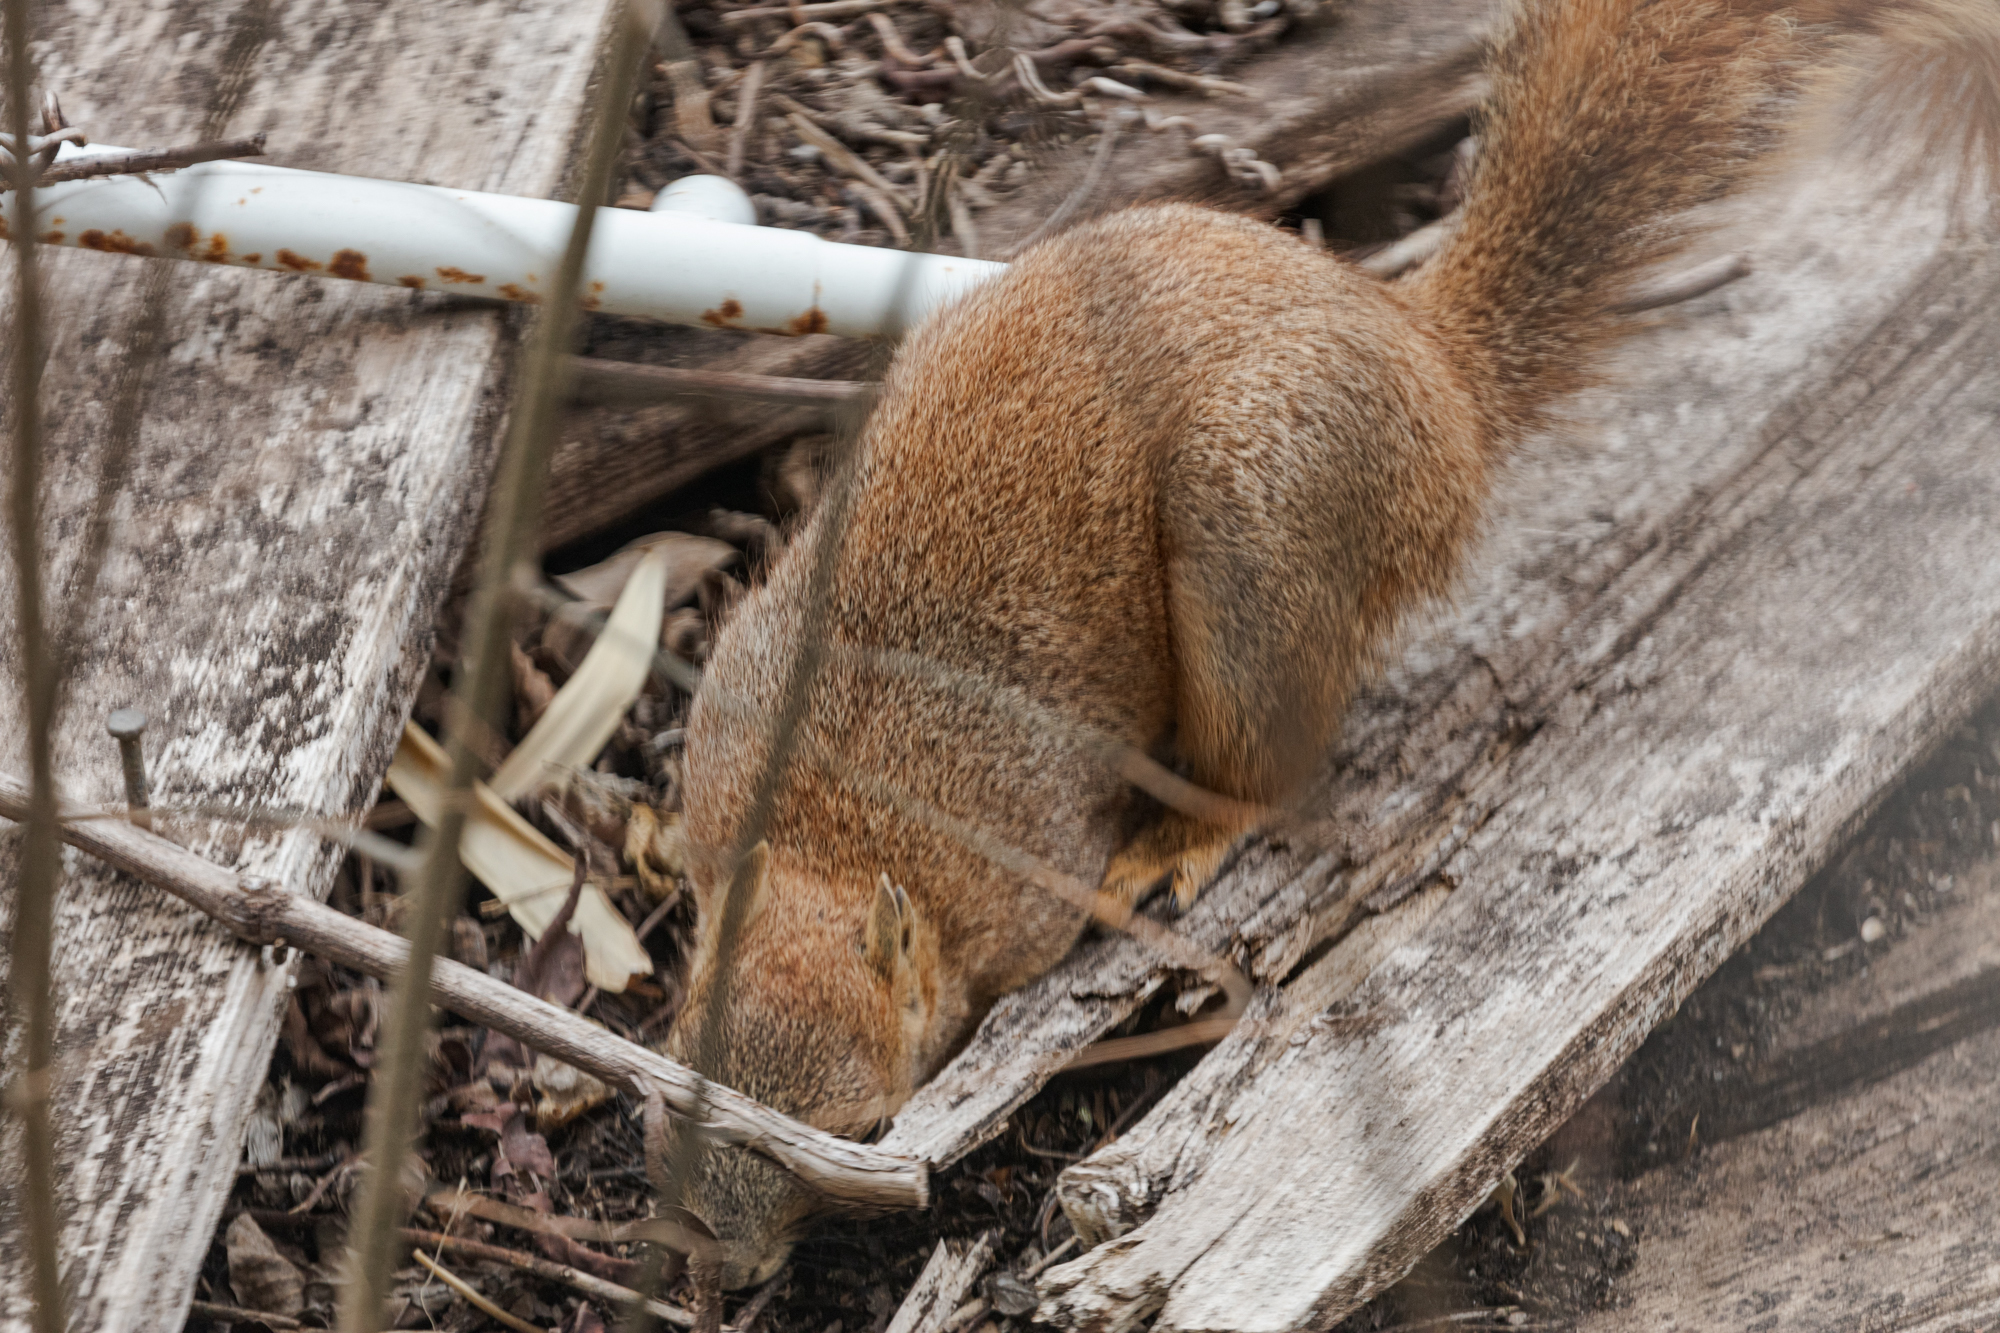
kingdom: Animalia
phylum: Chordata
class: Mammalia
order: Rodentia
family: Sciuridae
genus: Sciurus
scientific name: Sciurus niger
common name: Fox squirrel
